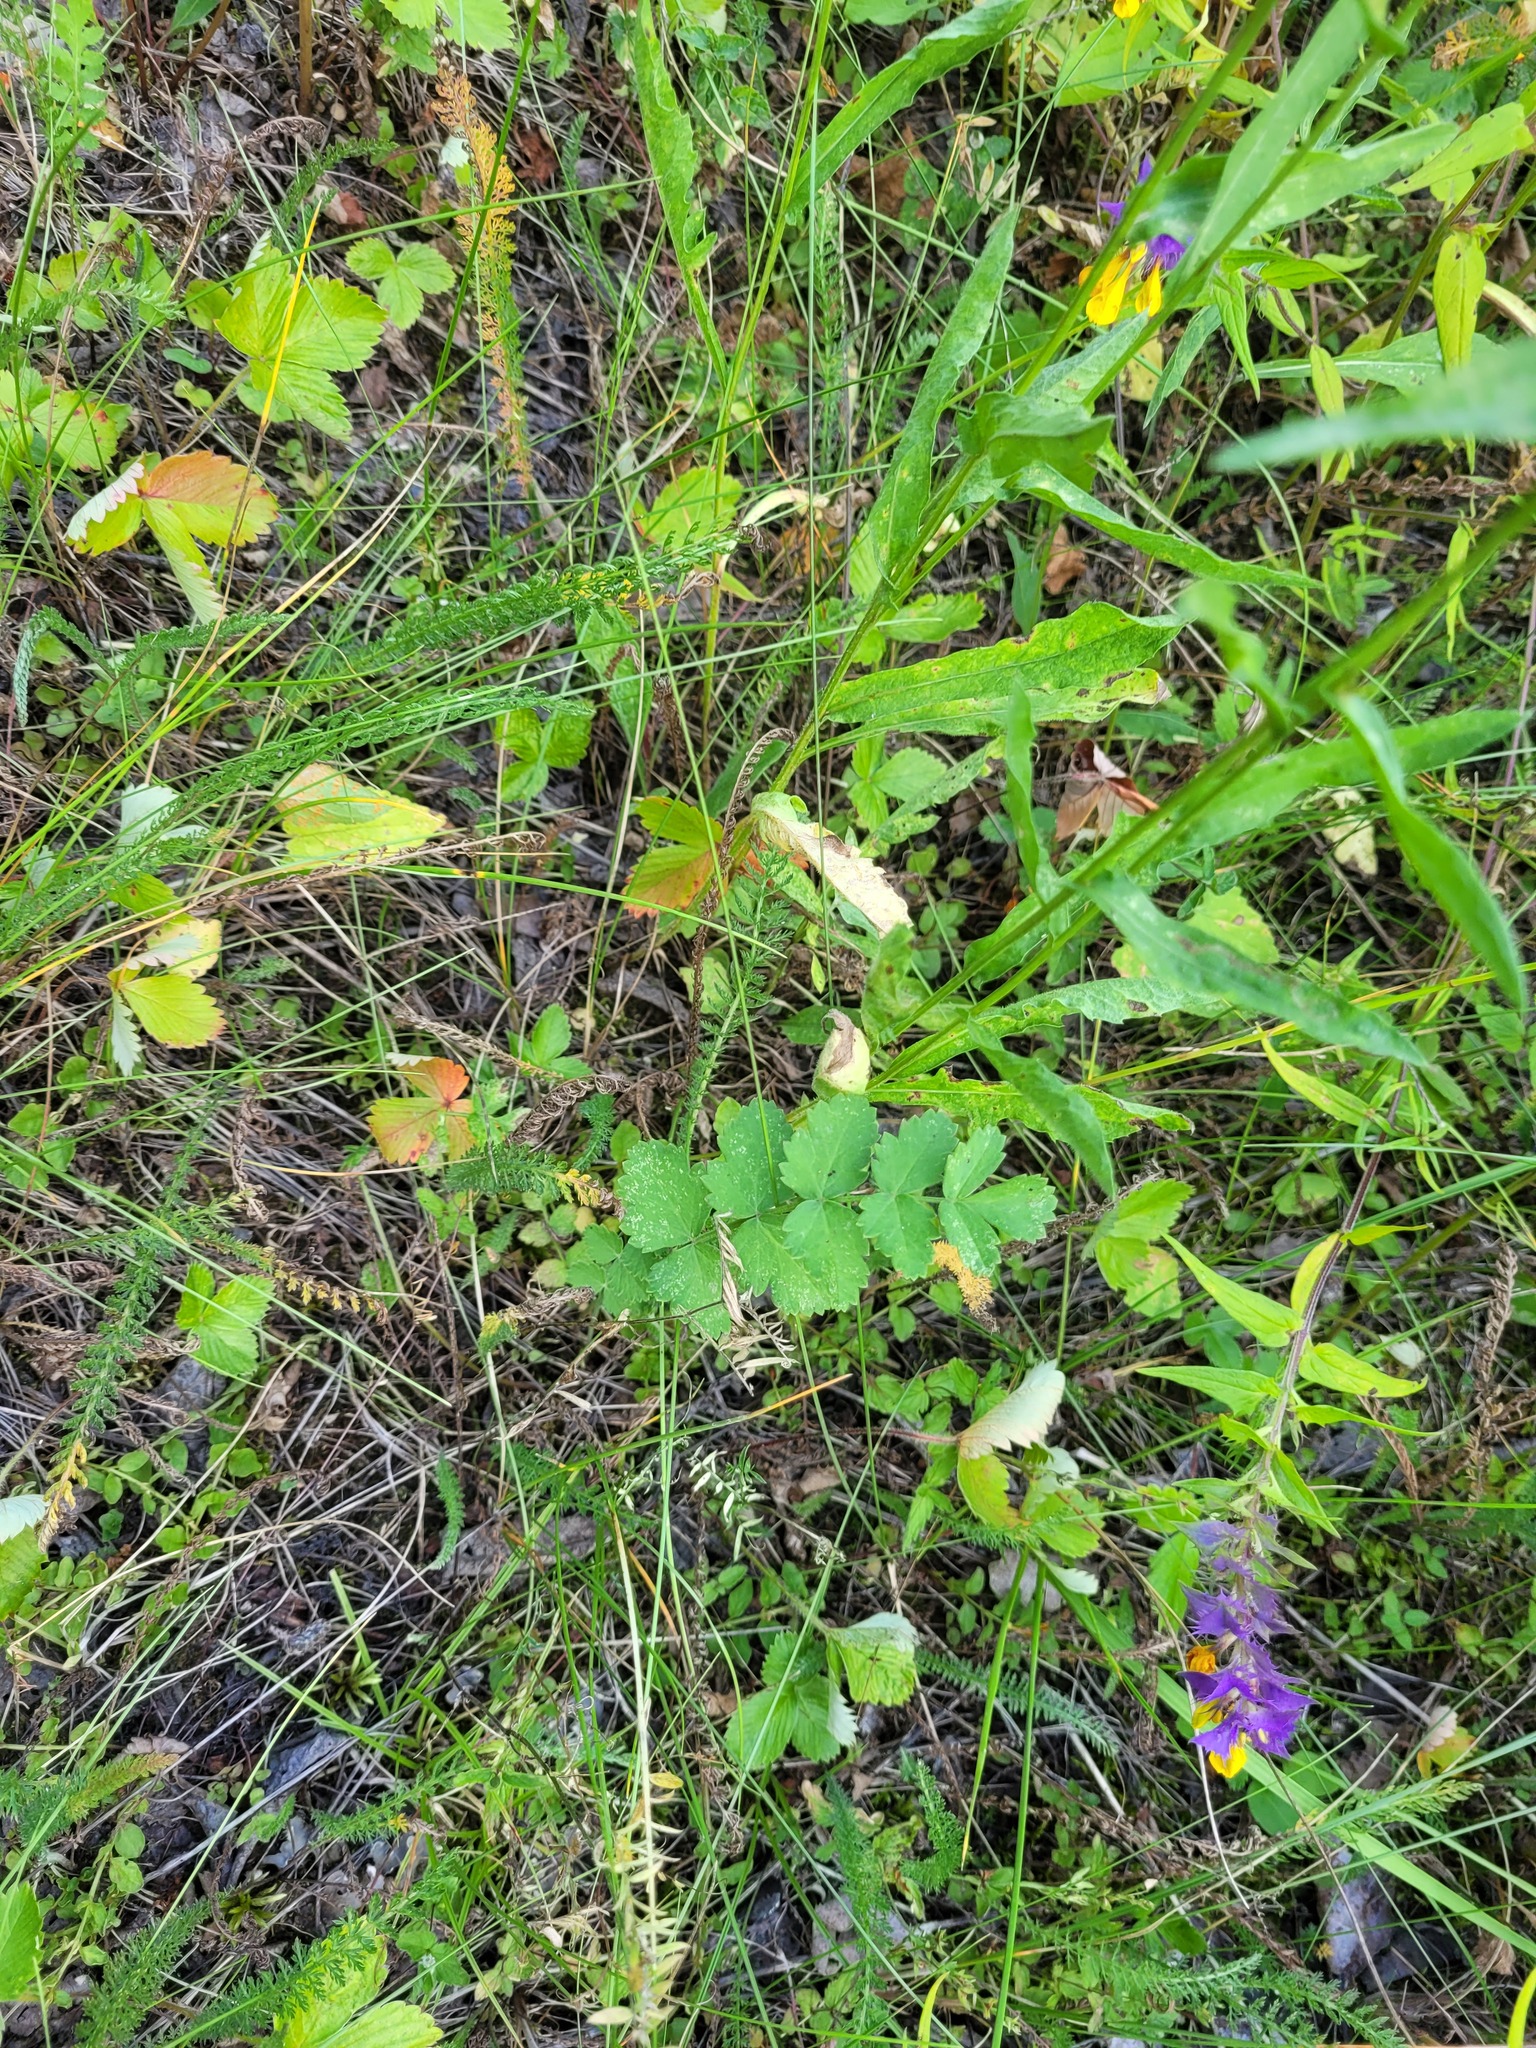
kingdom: Plantae
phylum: Tracheophyta
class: Magnoliopsida
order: Apiales
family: Apiaceae
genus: Pimpinella
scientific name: Pimpinella saxifraga
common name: Burnet-saxifrage
